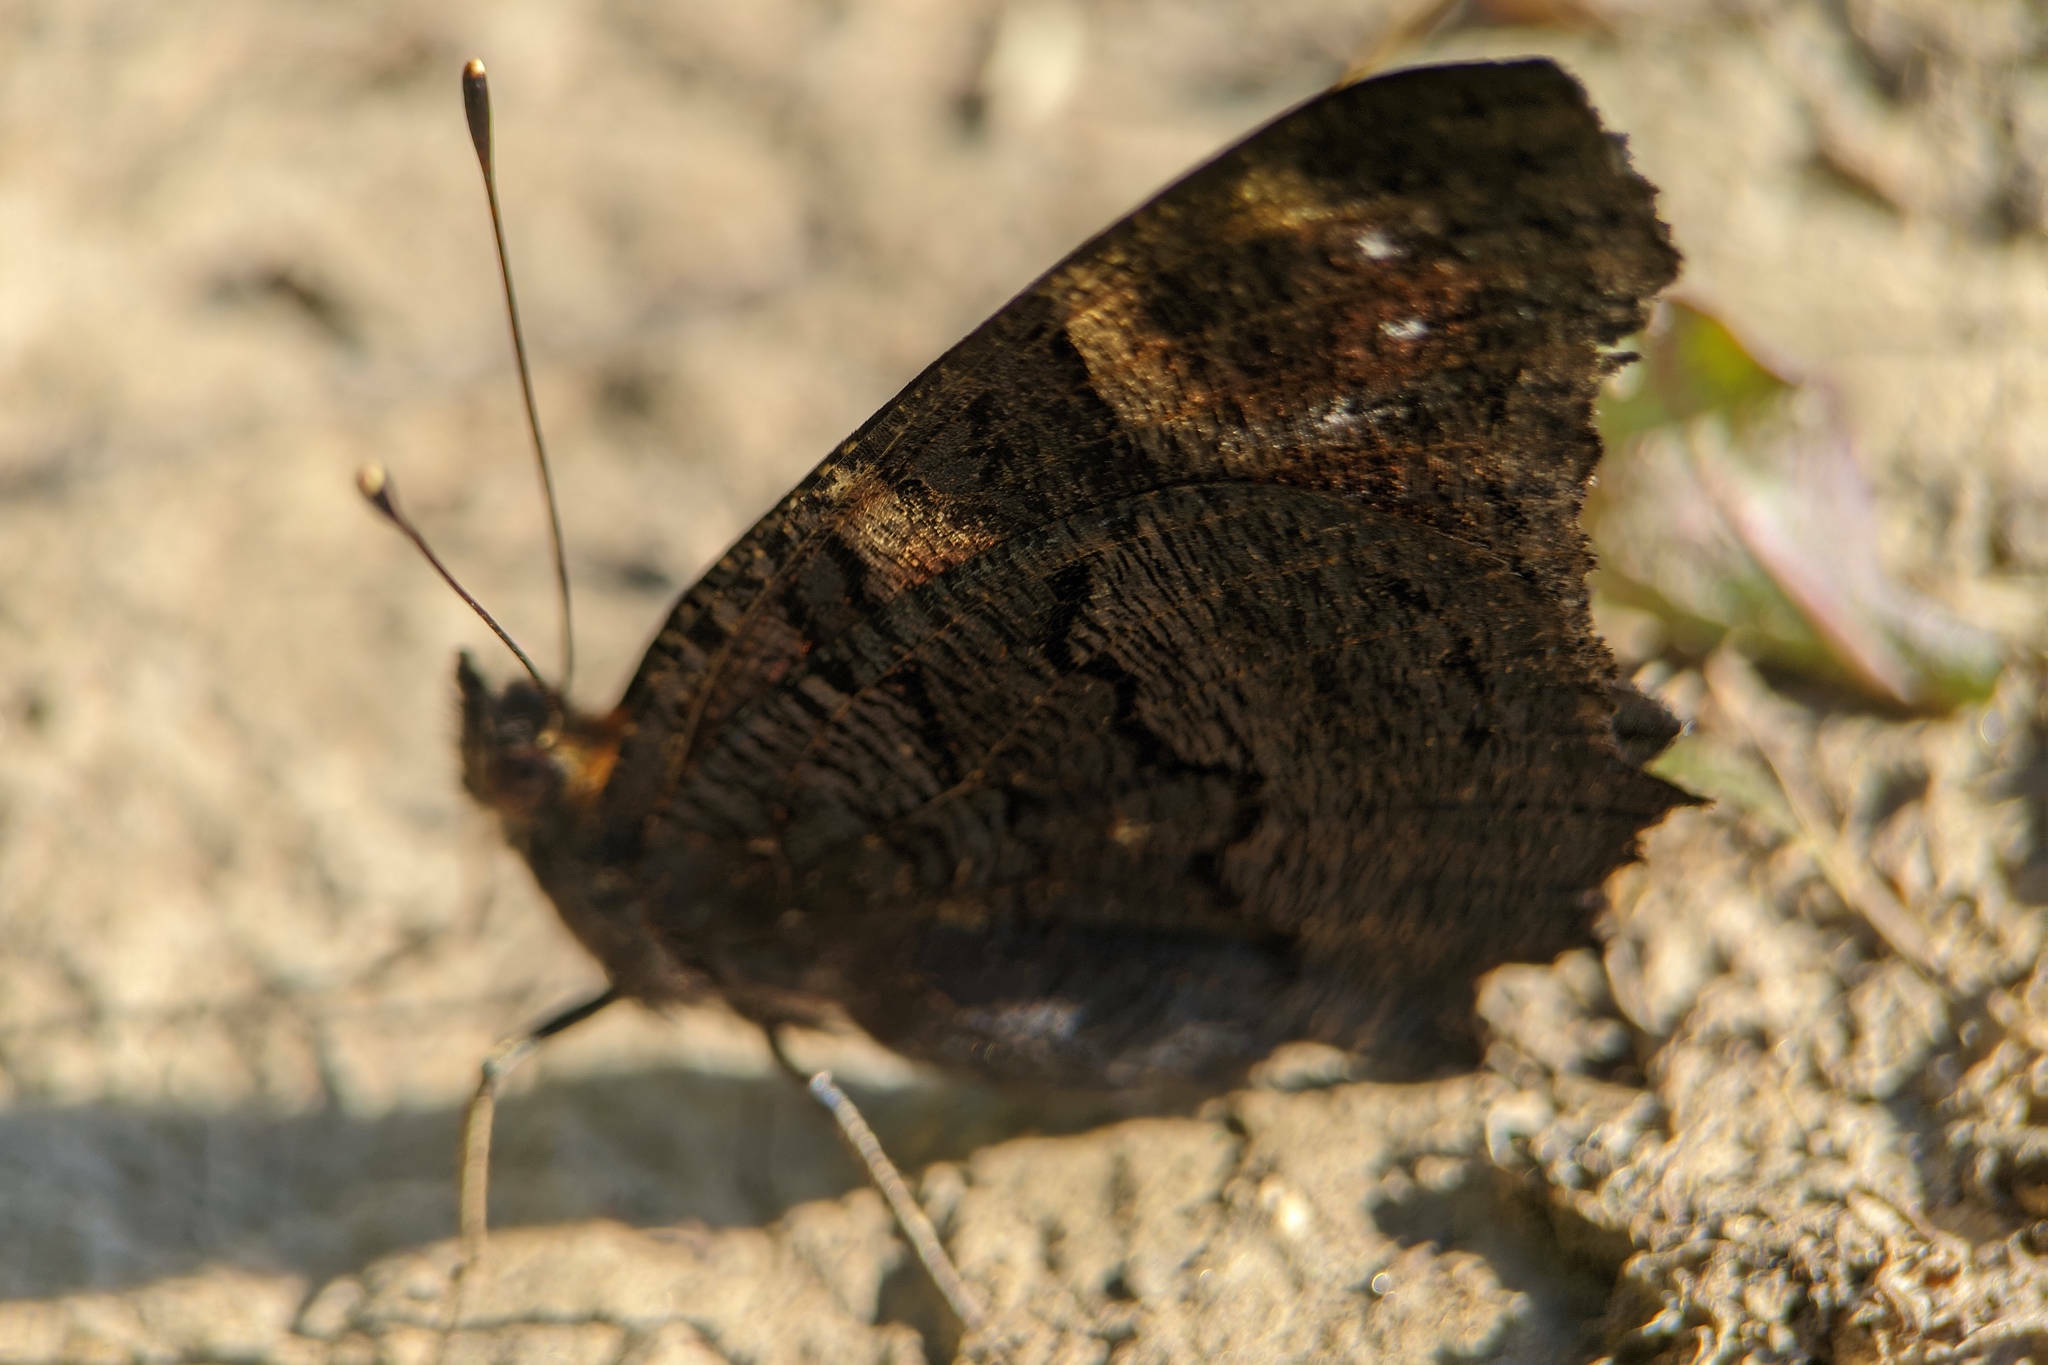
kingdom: Animalia
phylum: Arthropoda
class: Insecta
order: Lepidoptera
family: Nymphalidae
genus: Aglais
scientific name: Aglais io
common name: Peacock
